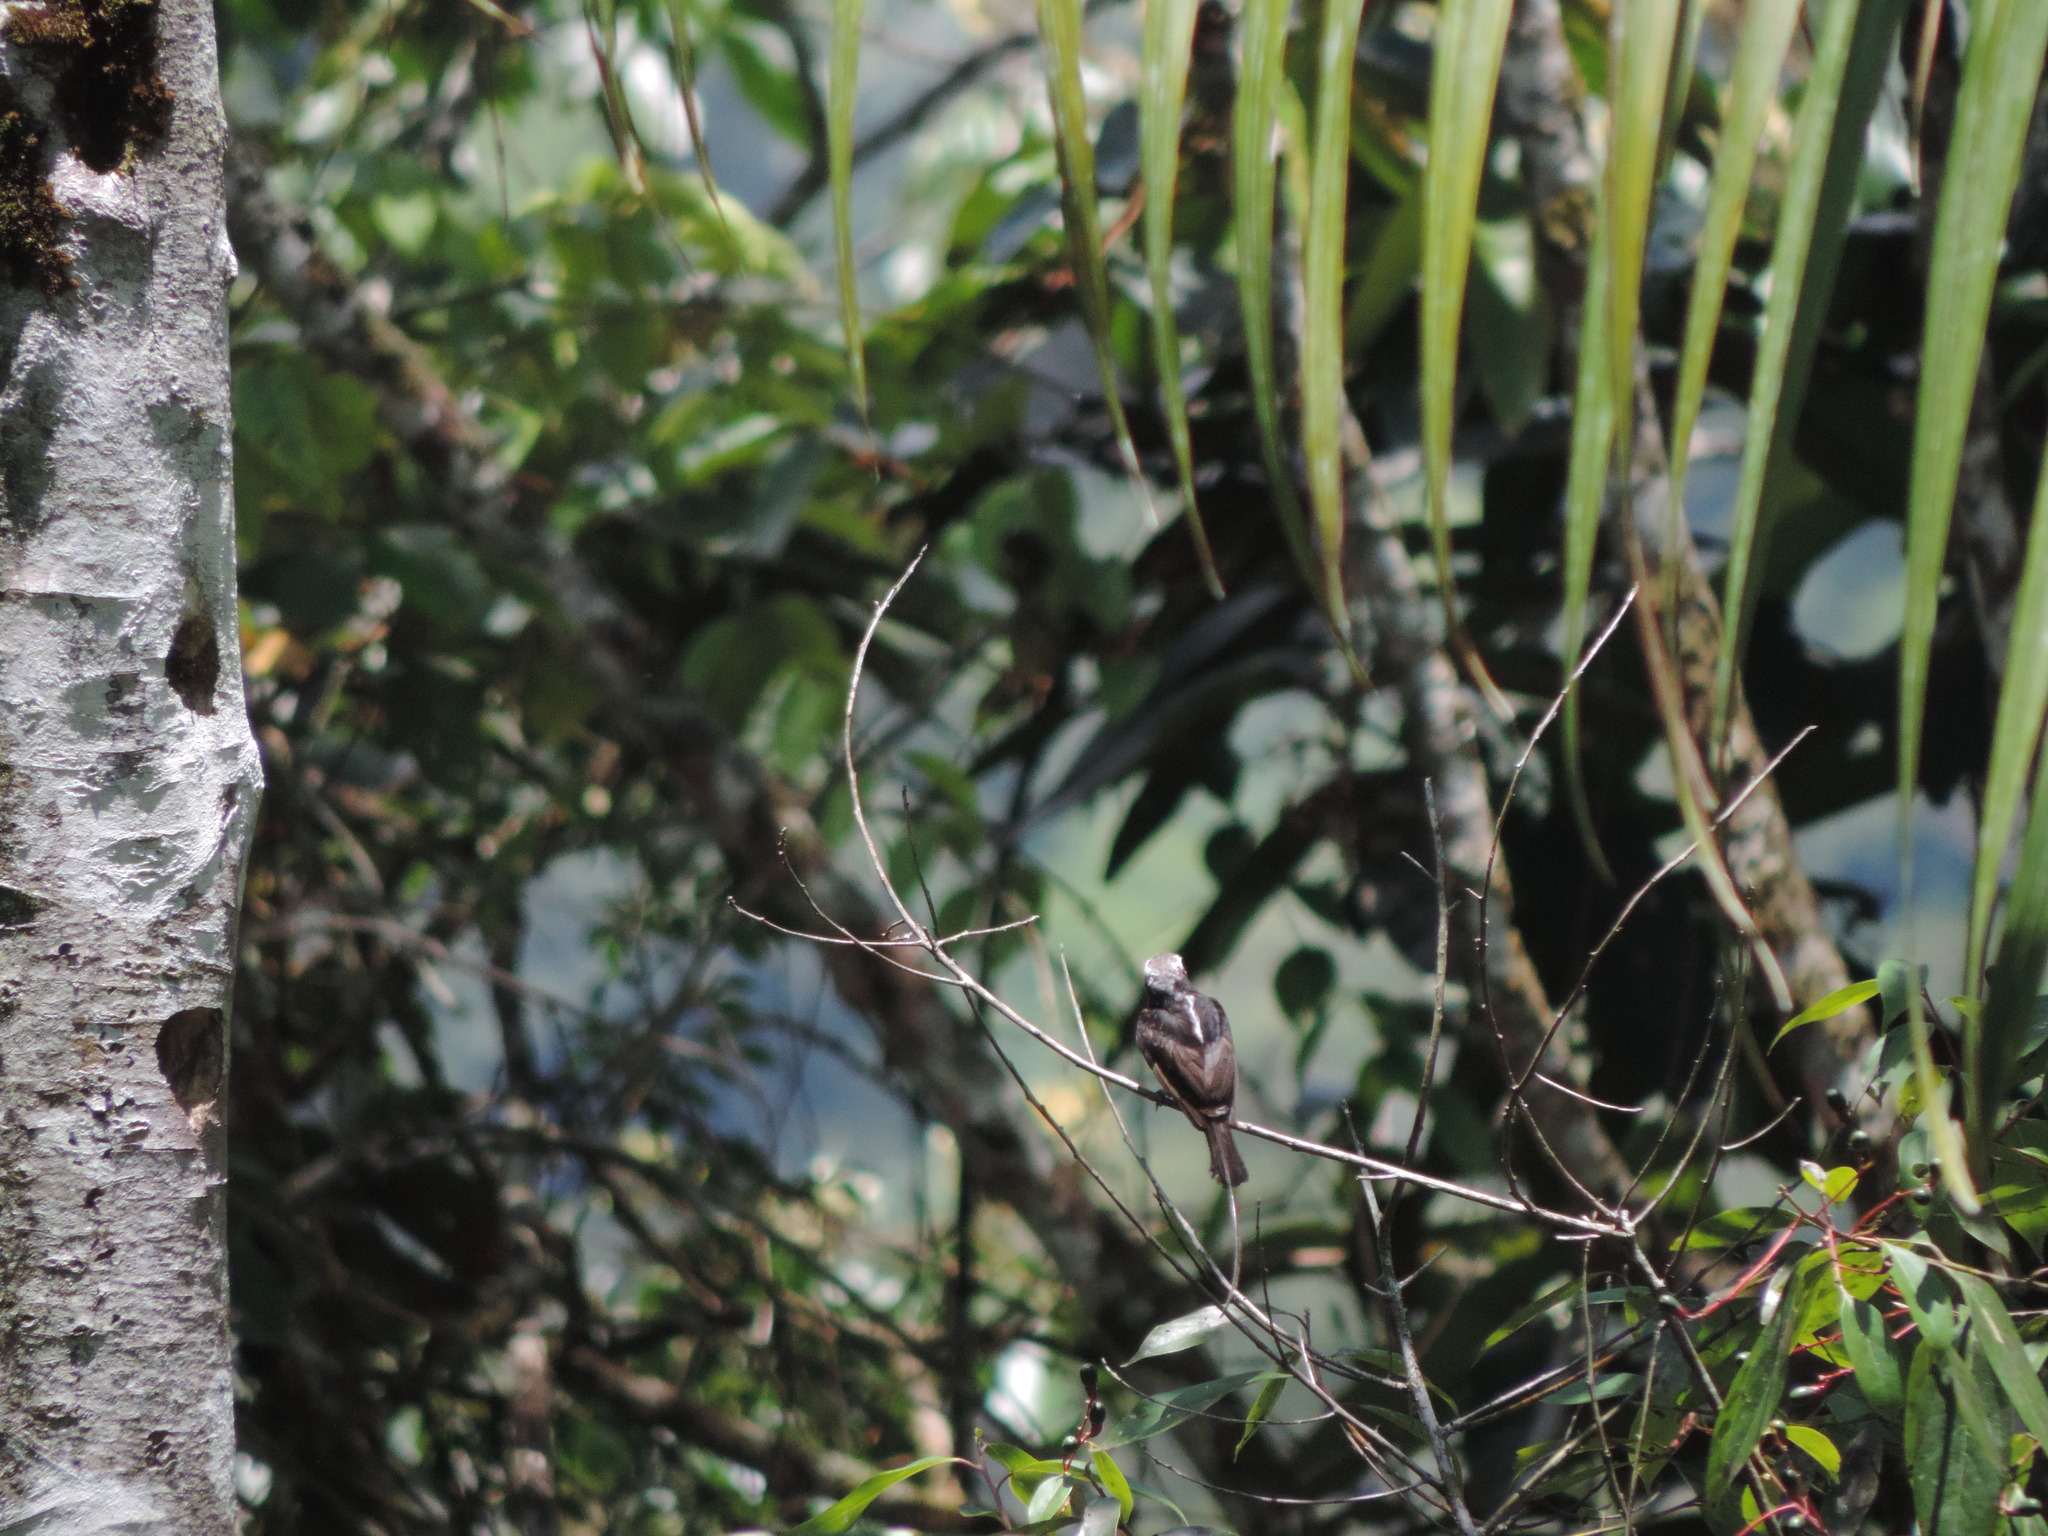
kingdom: Animalia
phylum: Chordata
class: Aves
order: Passeriformes
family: Tyrannidae
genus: Colonia
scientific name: Colonia colonus
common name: Long-tailed tyrant
